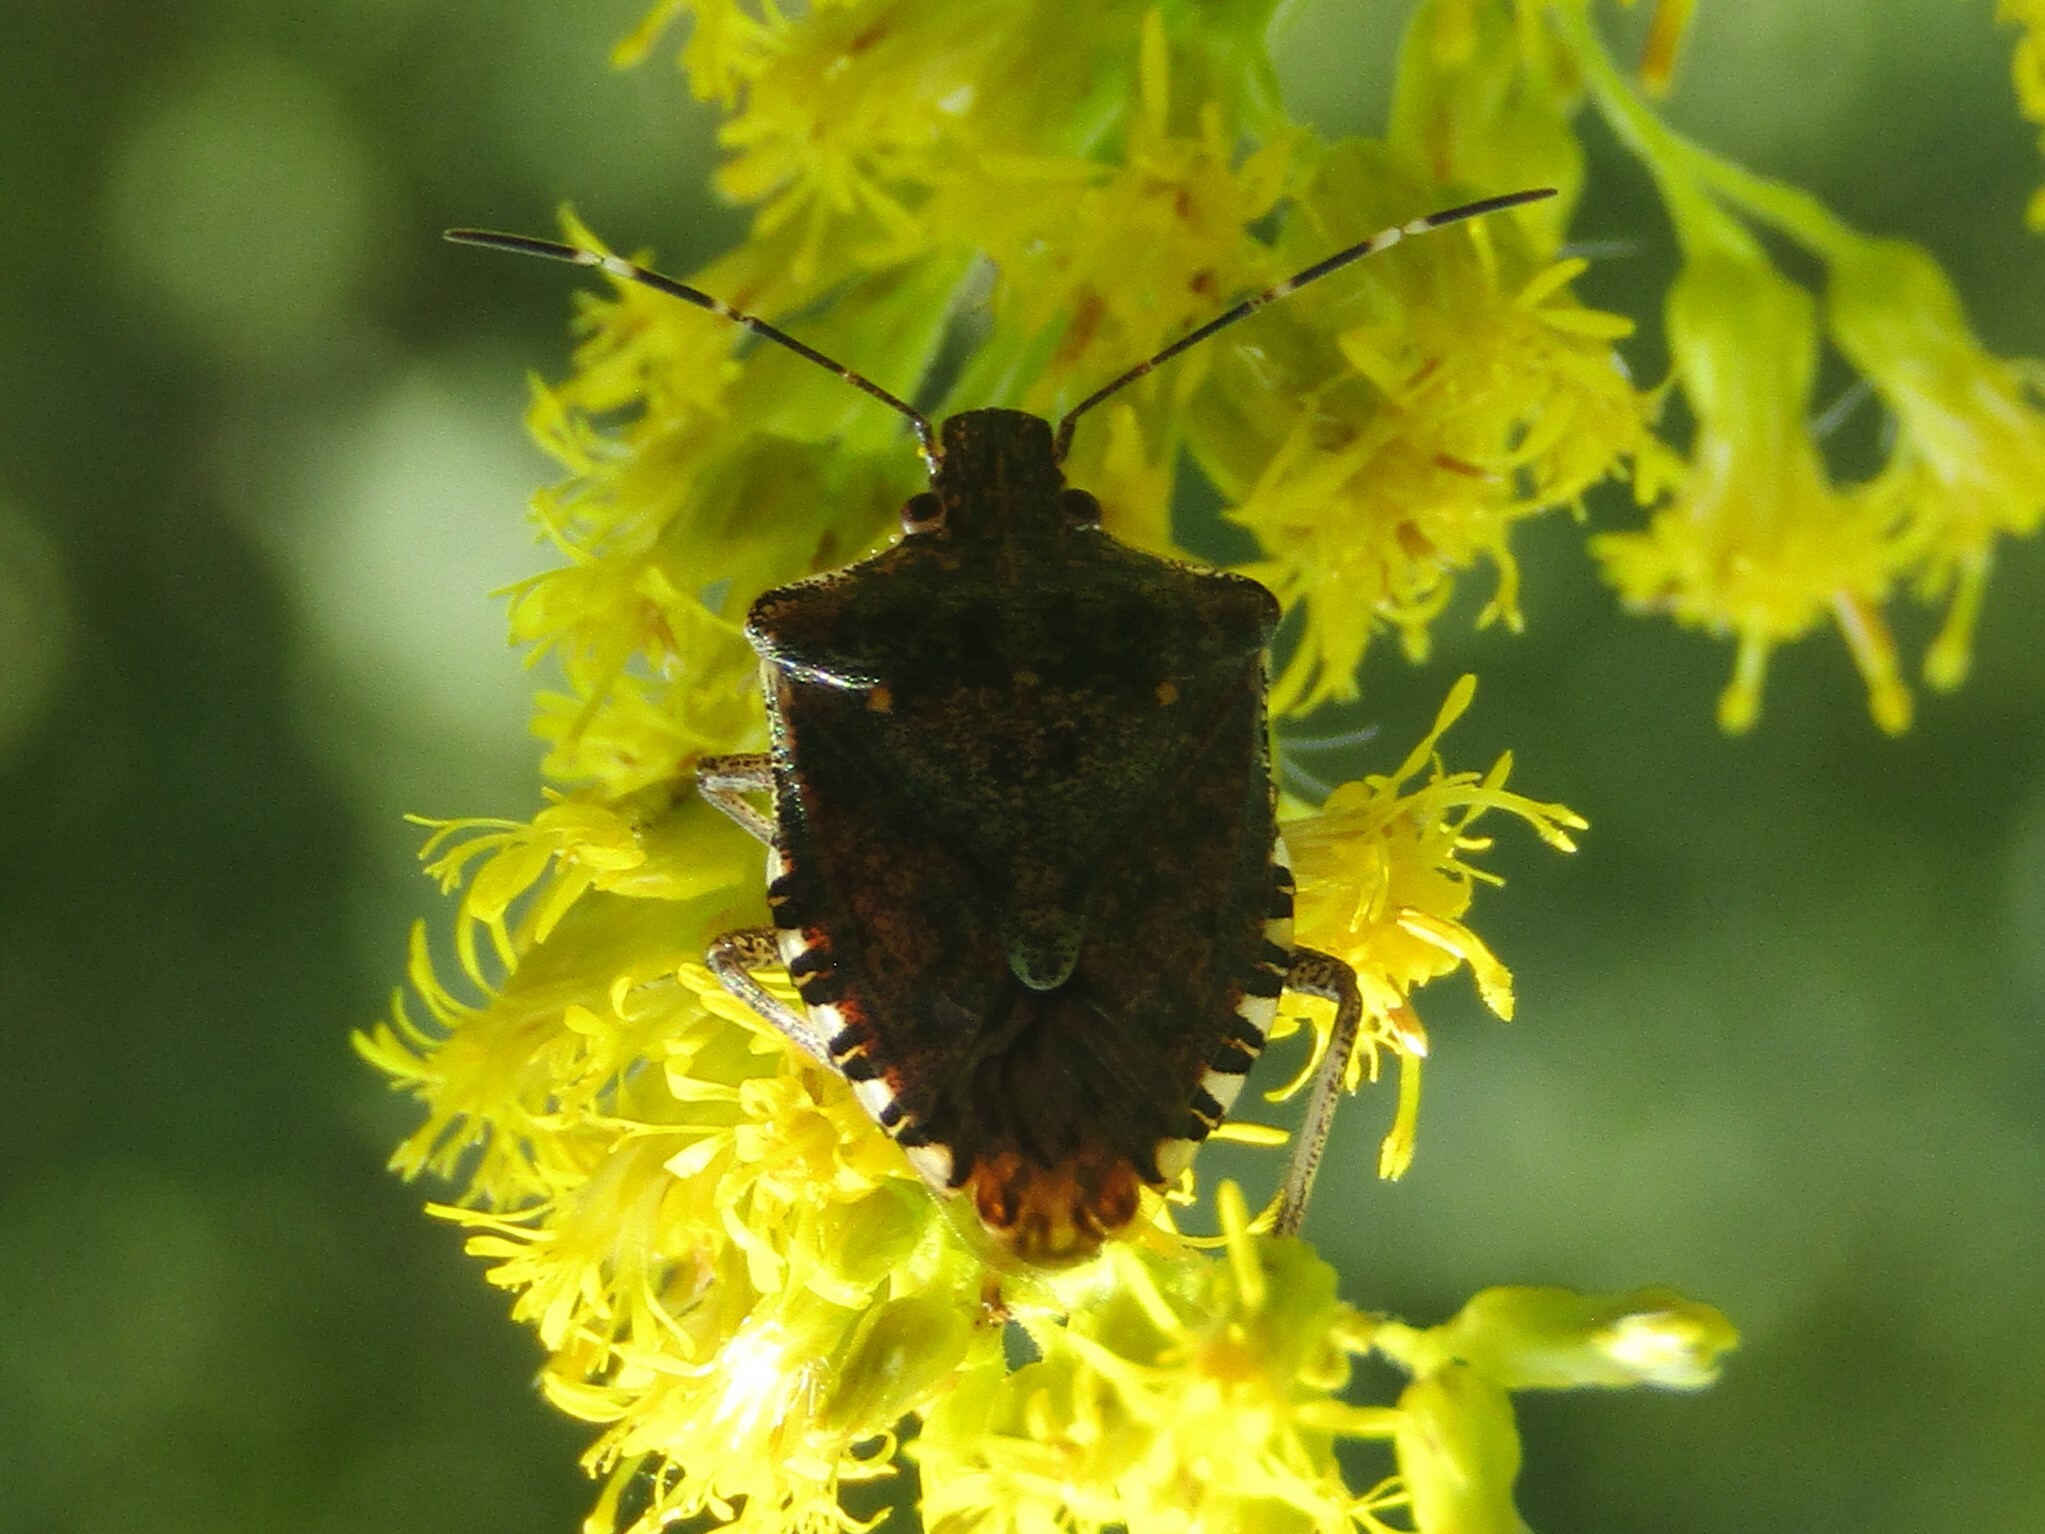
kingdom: Animalia
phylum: Arthropoda
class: Insecta
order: Hemiptera
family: Pentatomidae
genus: Halyomorpha
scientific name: Halyomorpha halys
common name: Brown marmorated stink bug
